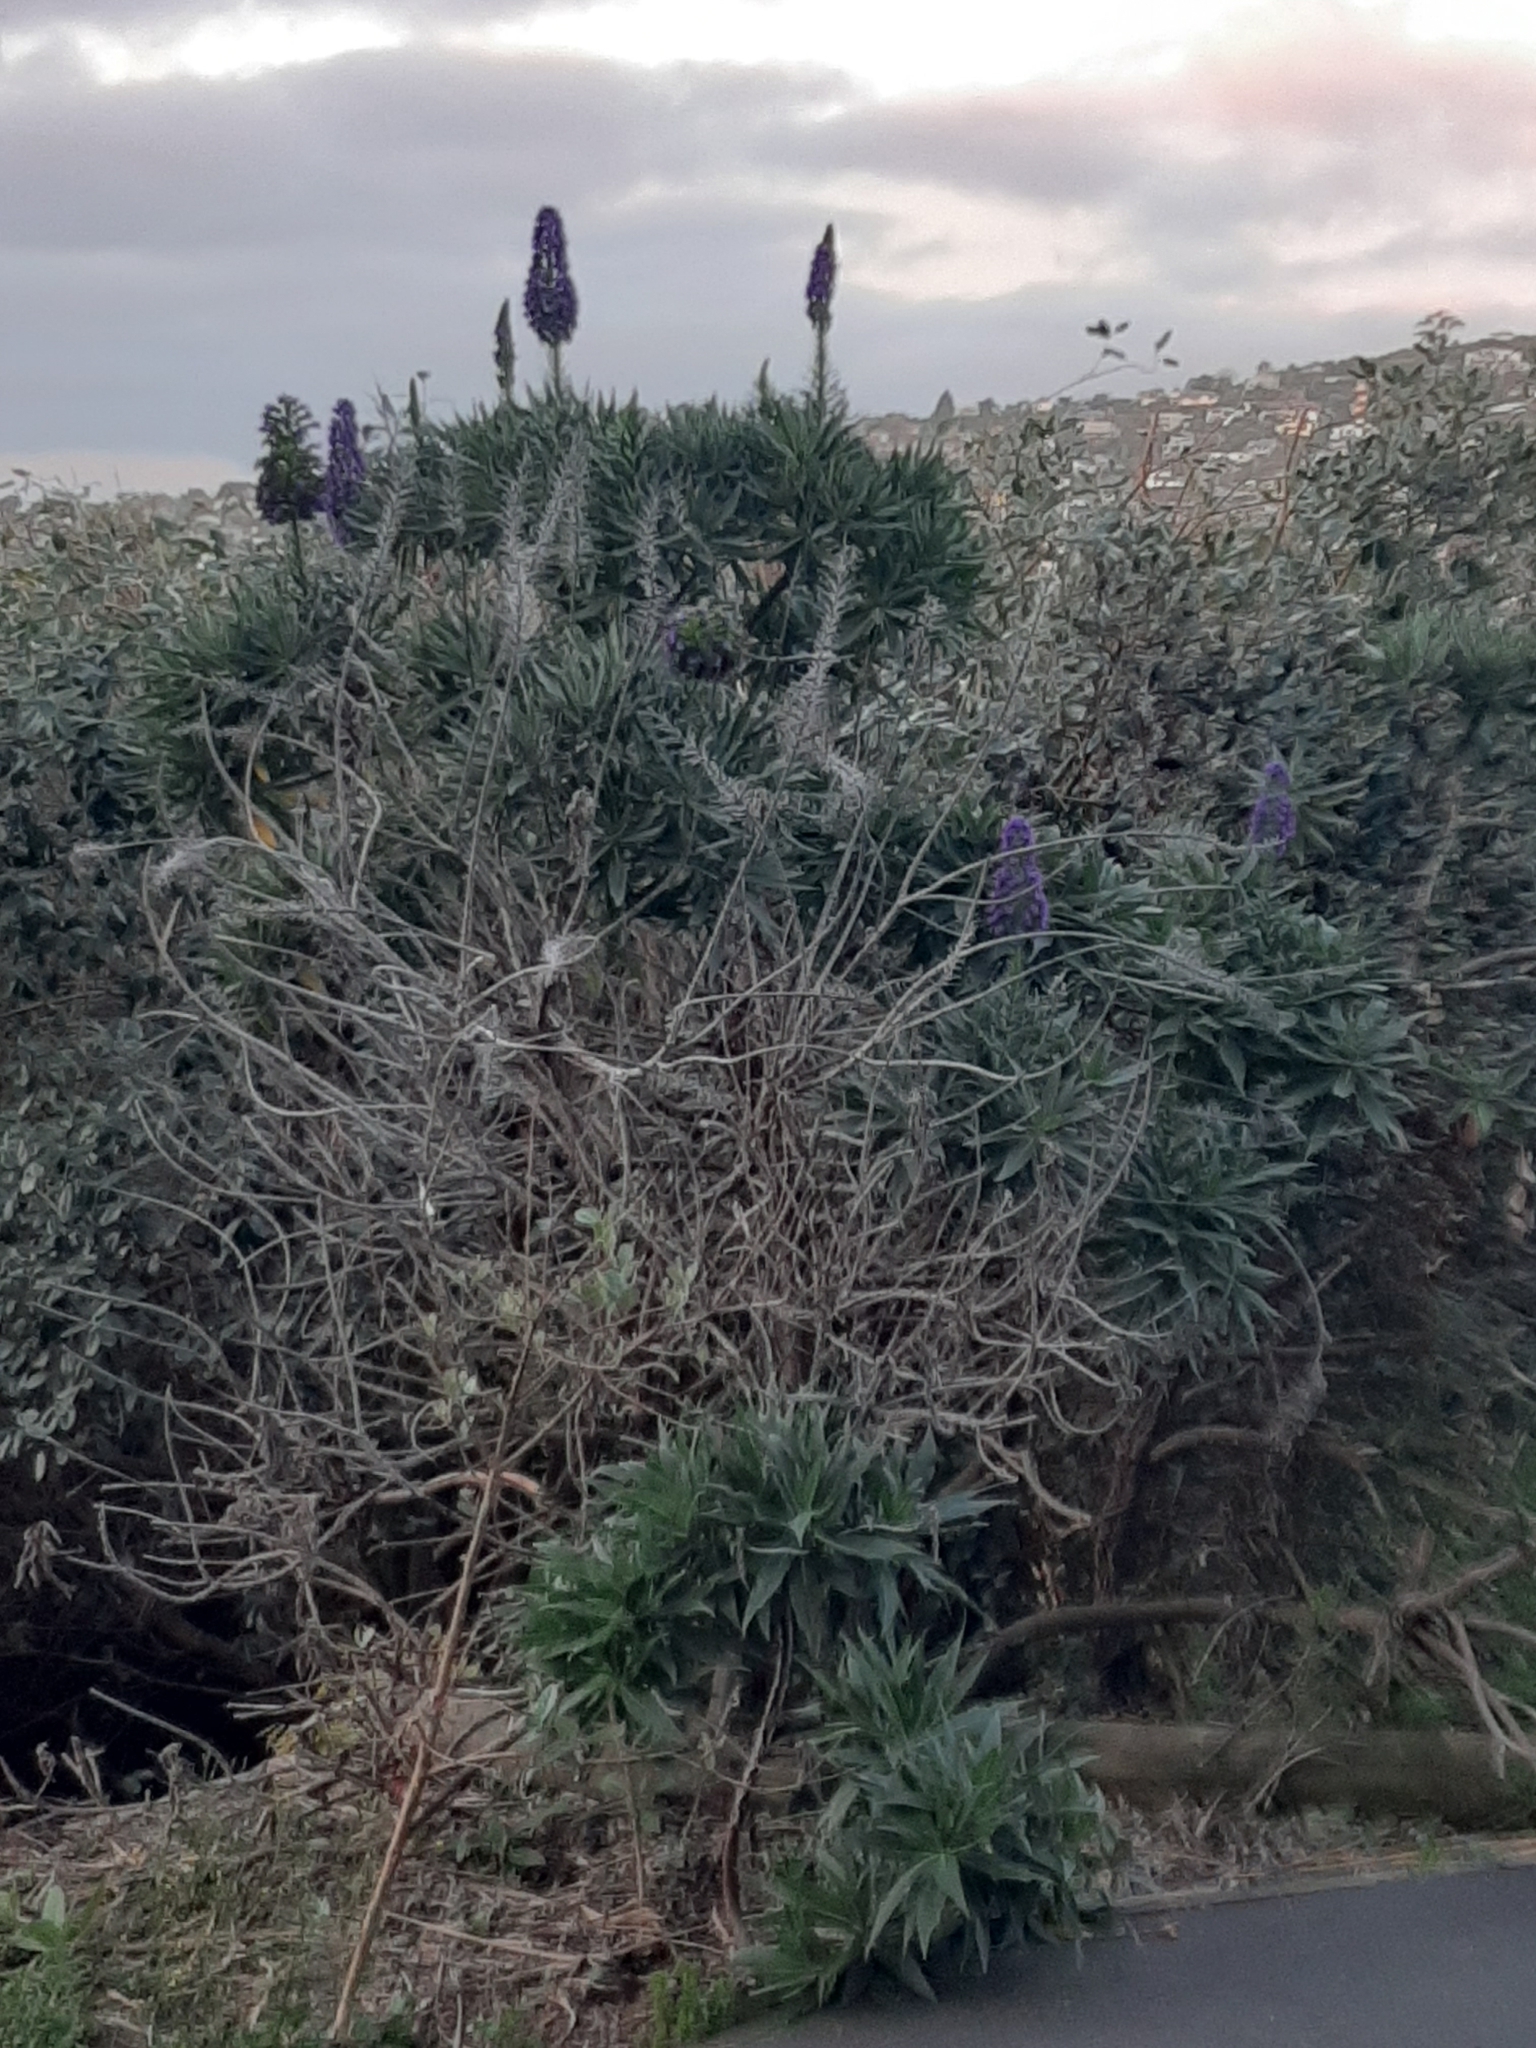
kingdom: Plantae
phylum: Tracheophyta
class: Magnoliopsida
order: Boraginales
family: Boraginaceae
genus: Echium
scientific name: Echium candicans
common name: Pride of madeira
